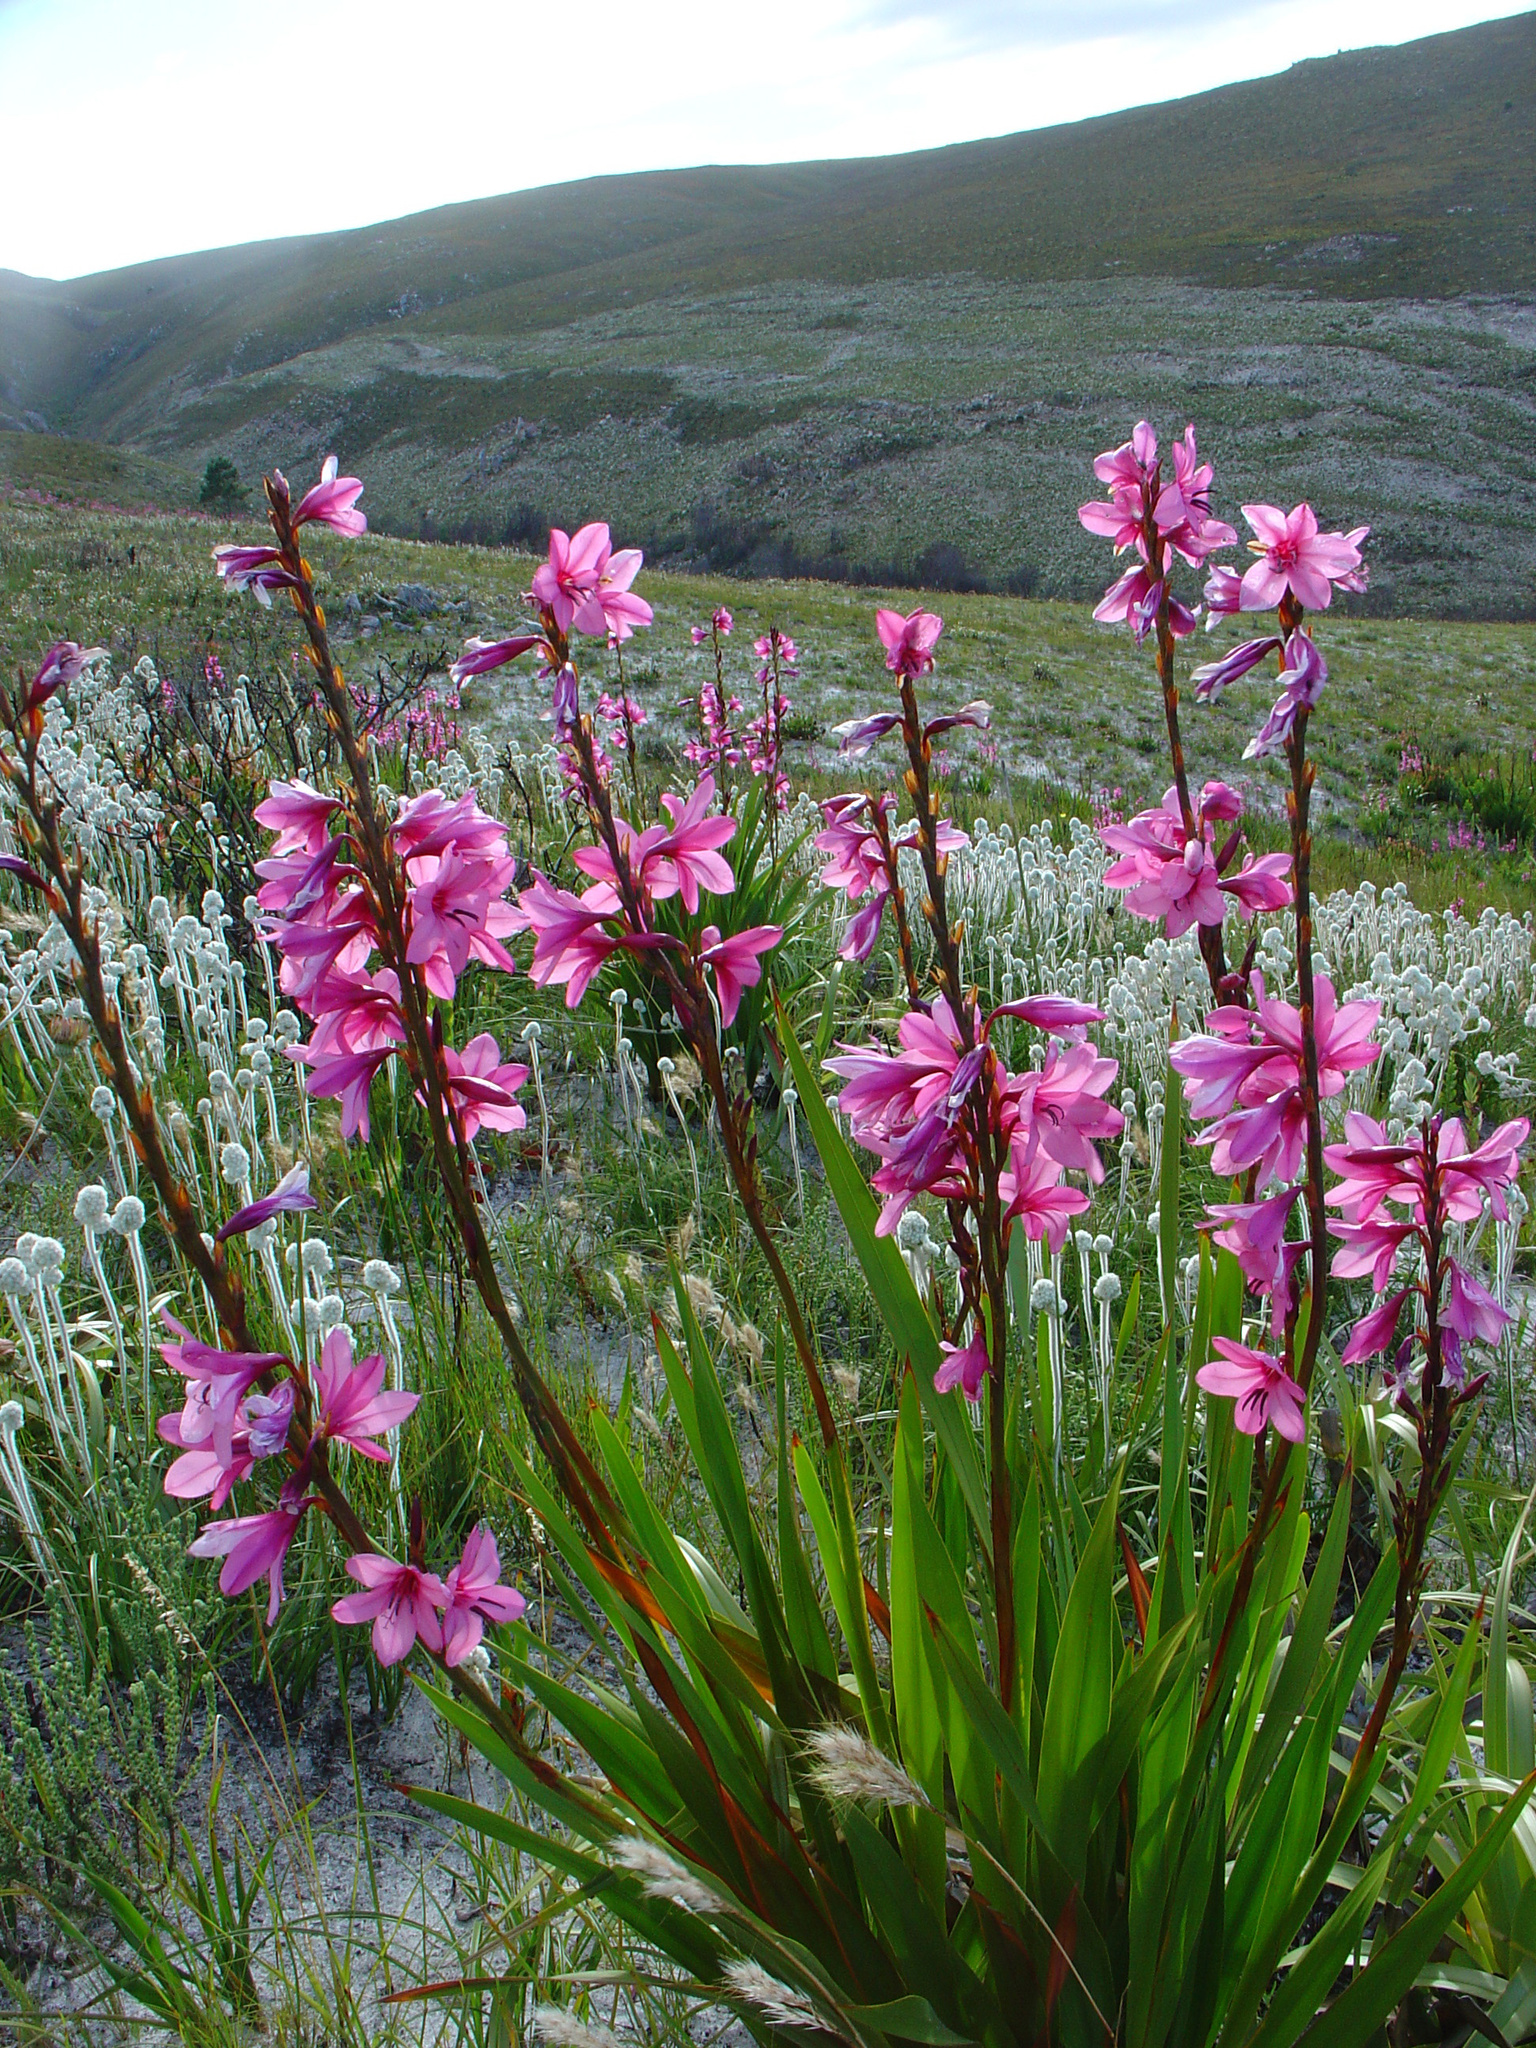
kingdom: Plantae
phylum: Tracheophyta
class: Liliopsida
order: Asparagales
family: Iridaceae
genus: Watsonia
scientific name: Watsonia borbonica
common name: Bugle-lily
